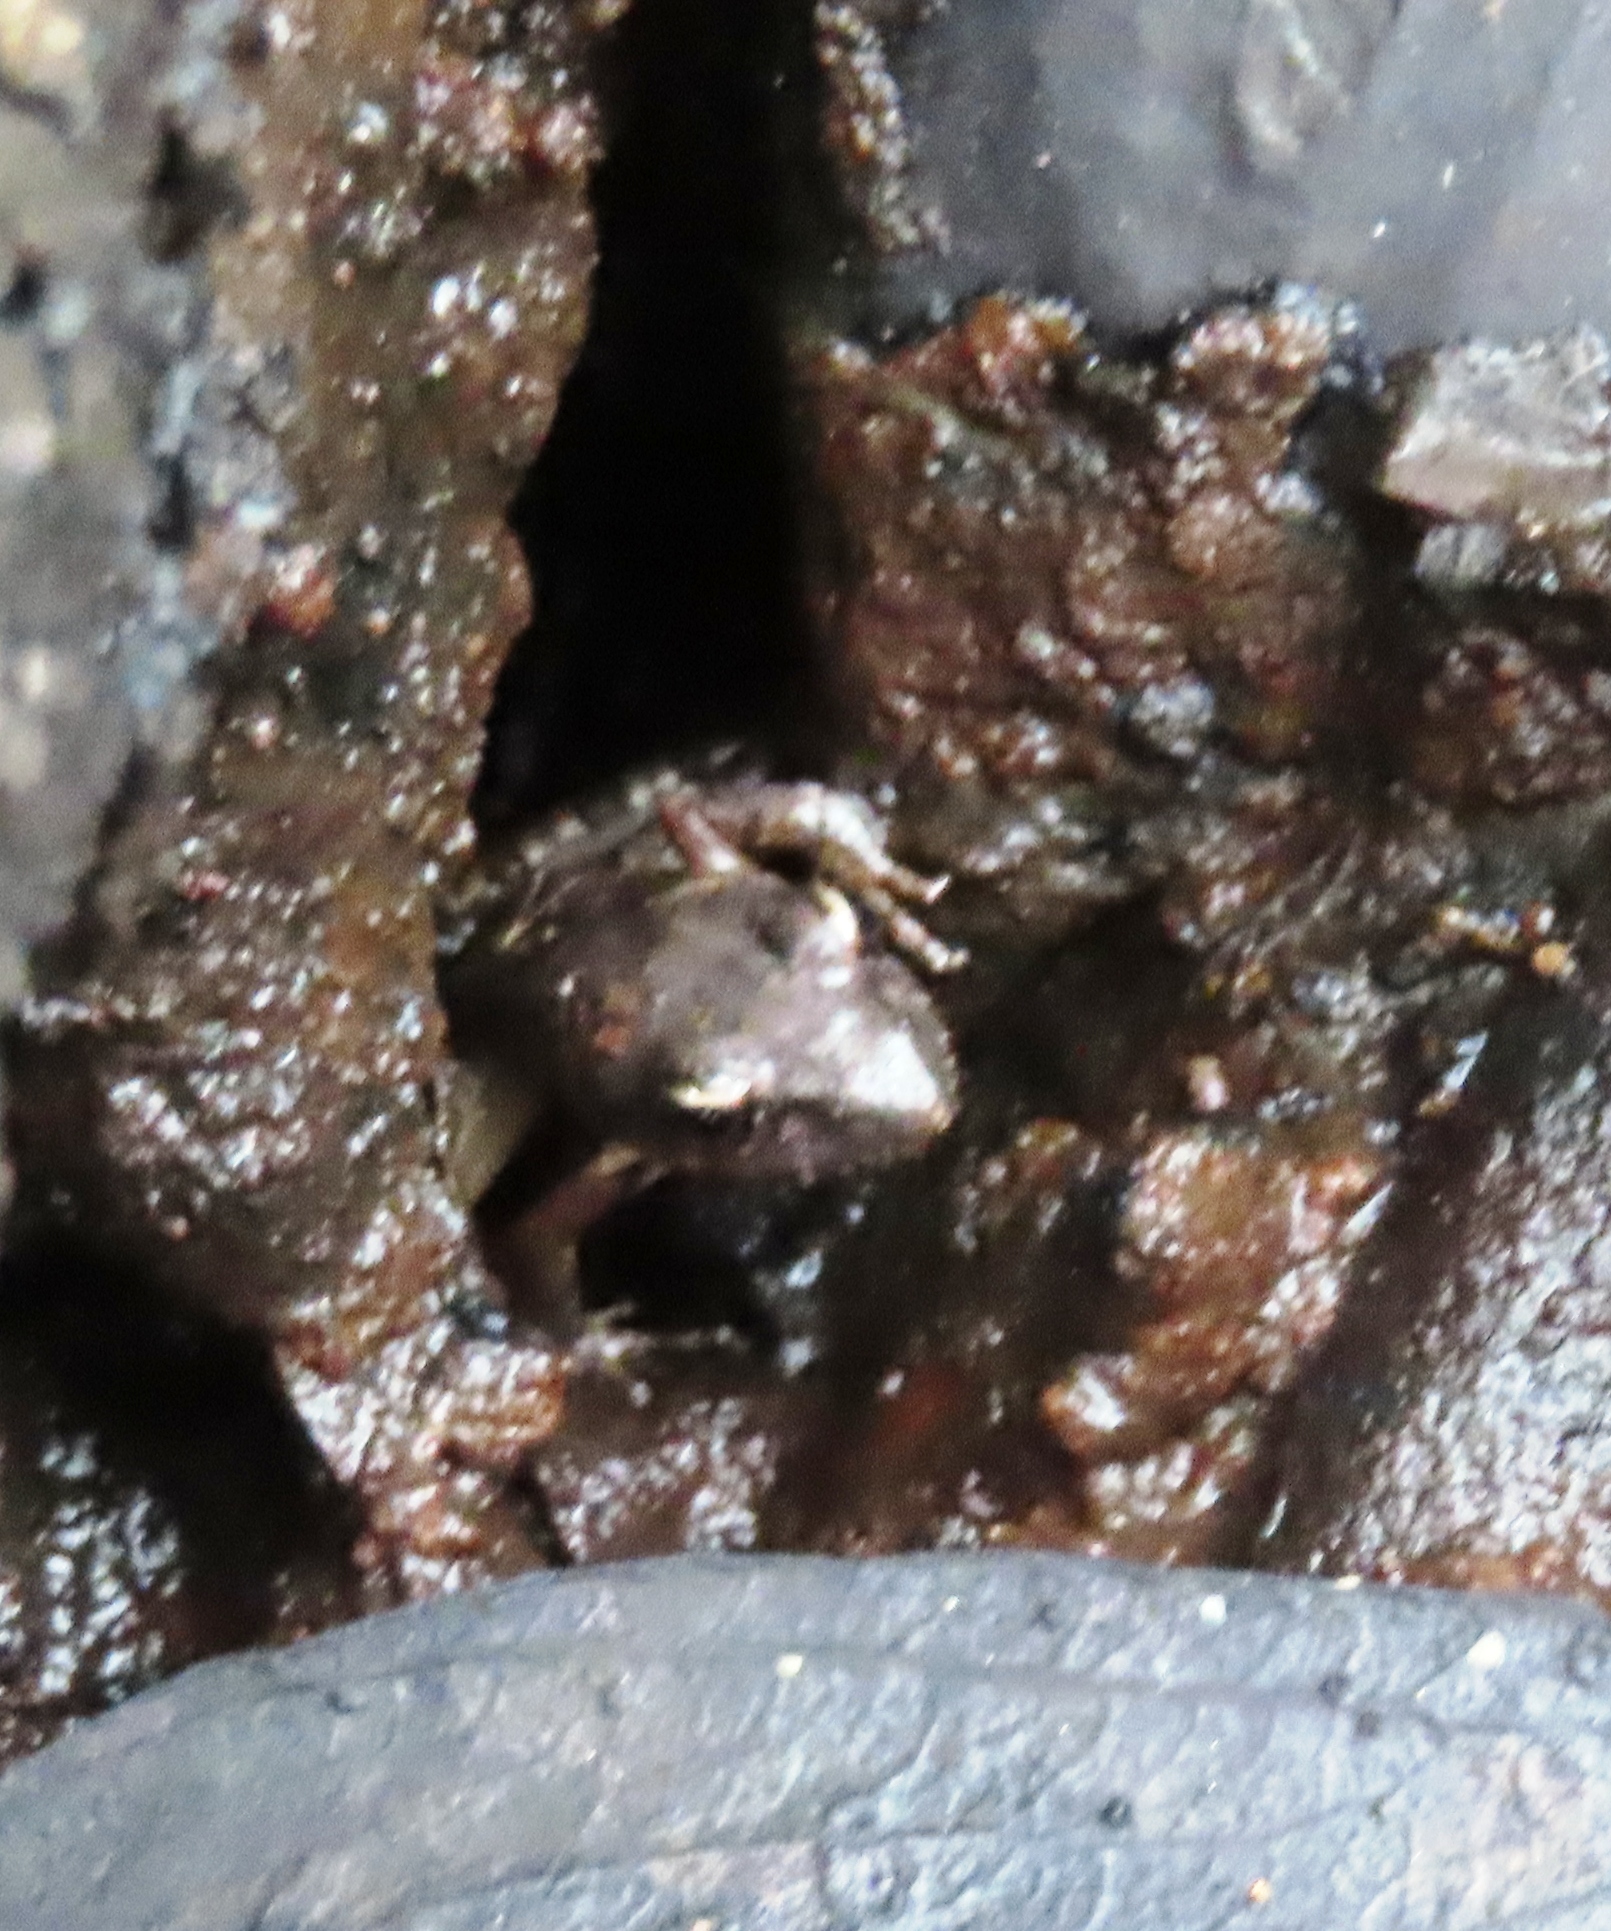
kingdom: Animalia
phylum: Chordata
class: Amphibia
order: Anura
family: Pyxicephalidae
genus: Strongylopus
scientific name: Strongylopus grayii
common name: Gray's stream frog
